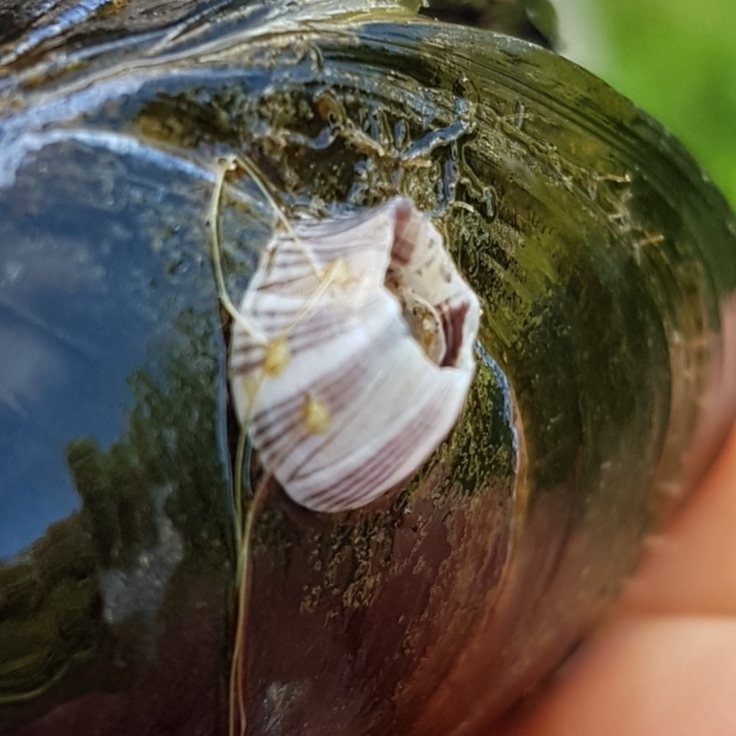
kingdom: Animalia
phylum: Arthropoda
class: Maxillopoda
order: Sessilia
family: Balanidae
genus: Amphibalanus
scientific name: Amphibalanus amphitrite
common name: Striped acorn barnacle
